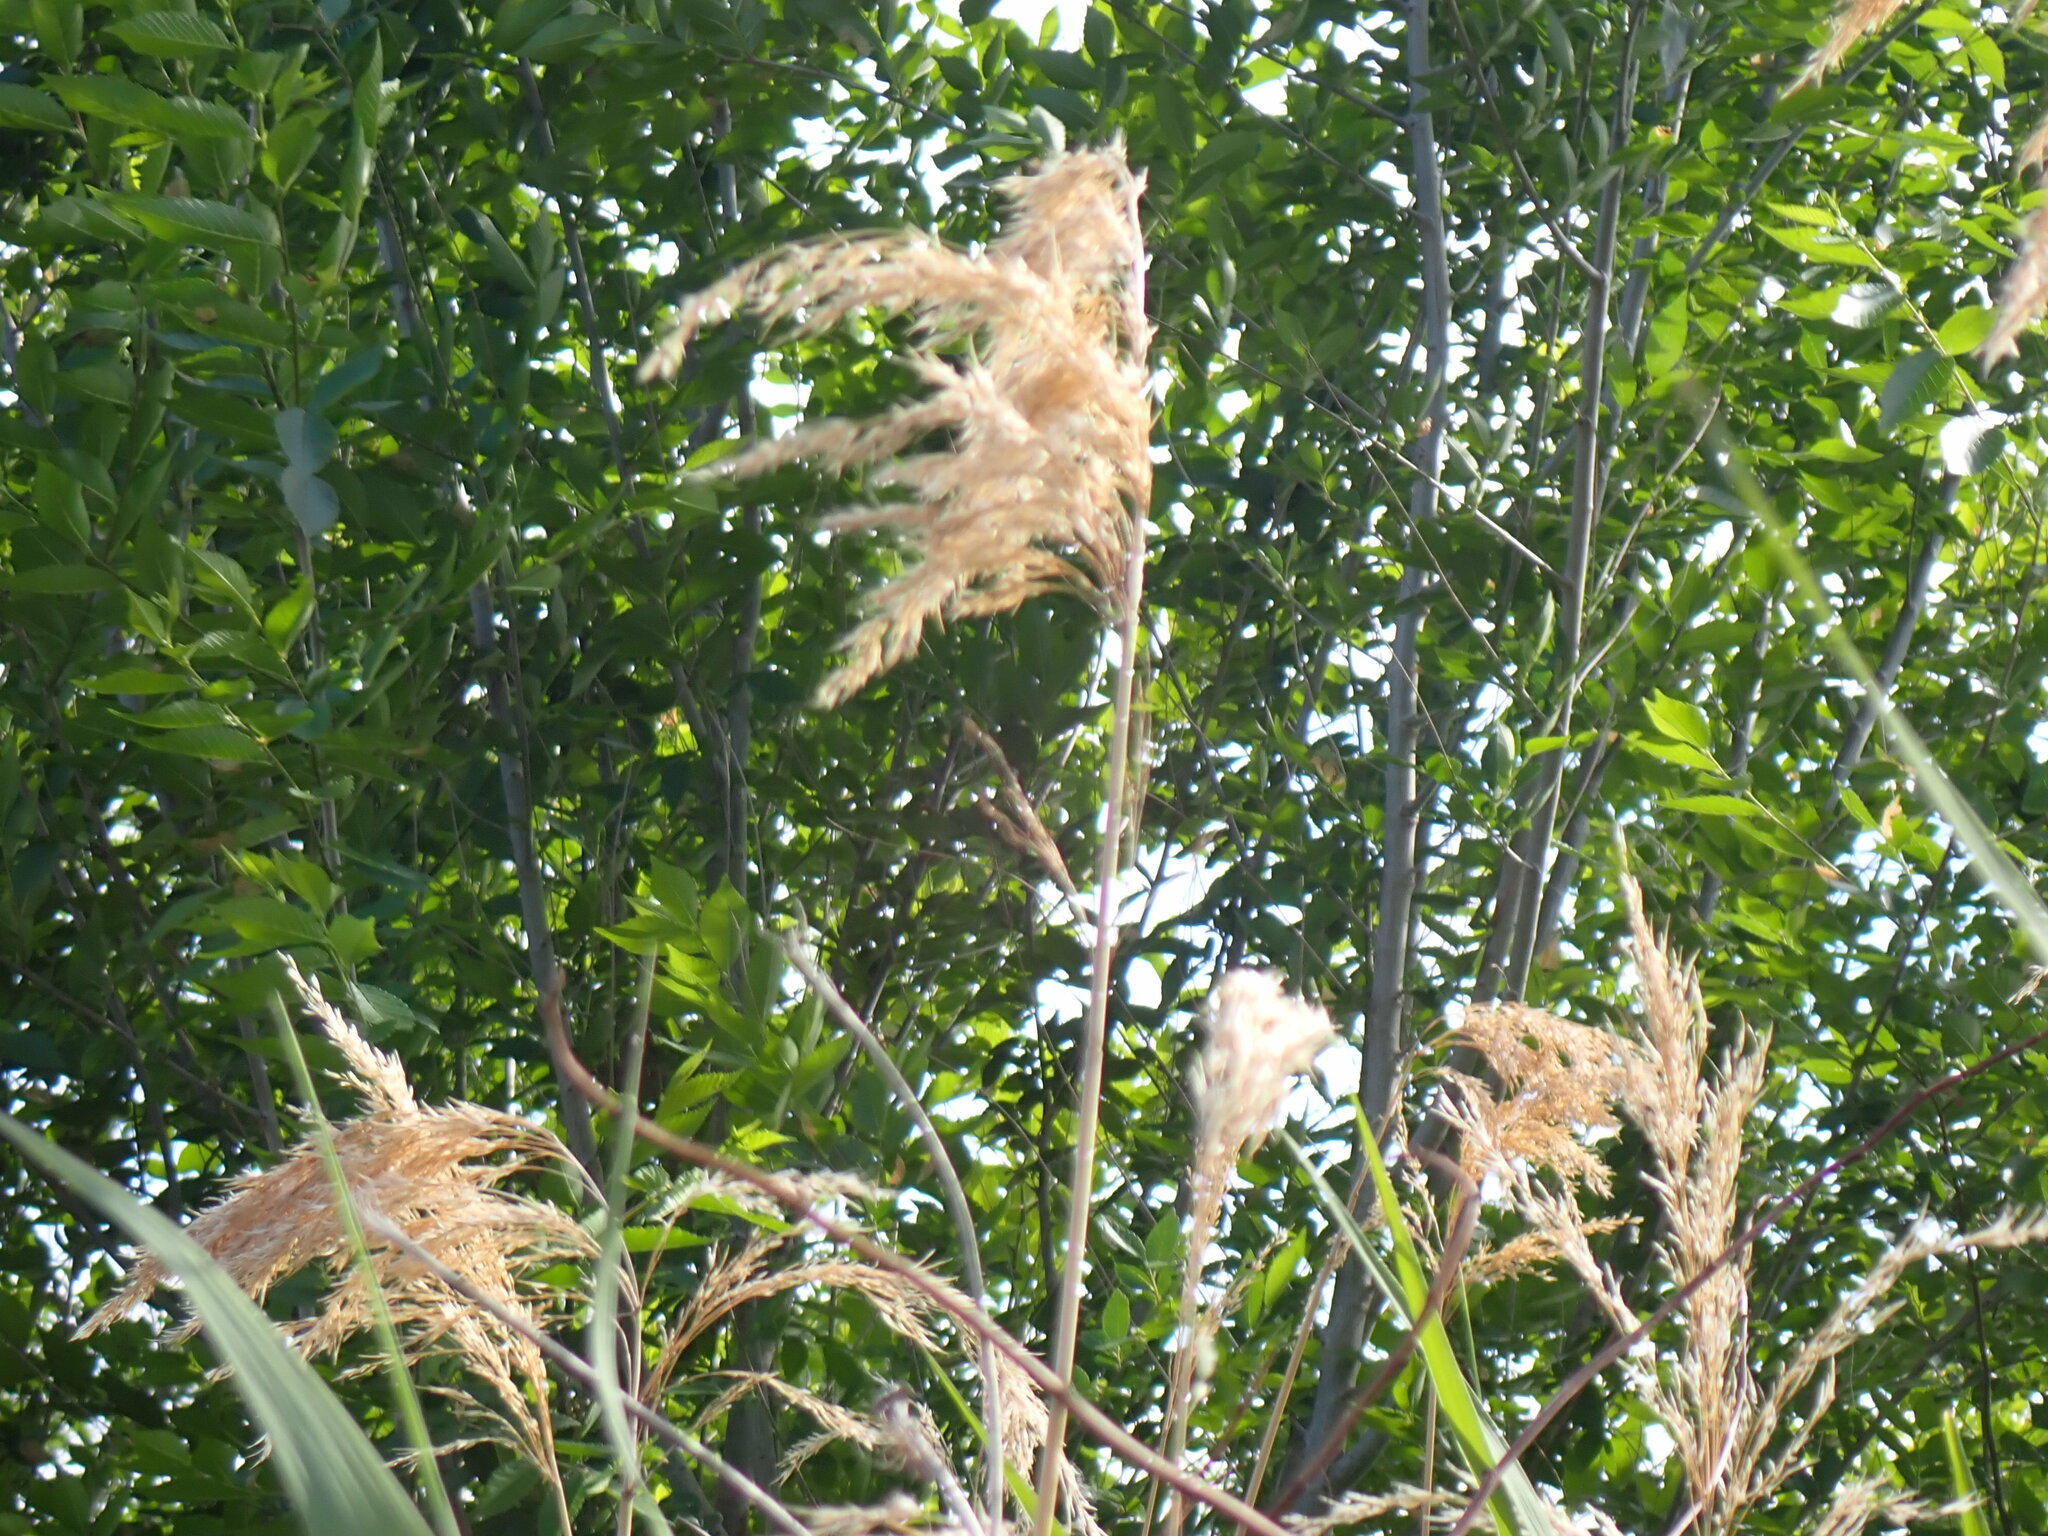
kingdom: Plantae
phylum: Tracheophyta
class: Liliopsida
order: Poales
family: Poaceae
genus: Phragmites
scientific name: Phragmites australis
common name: Common reed
